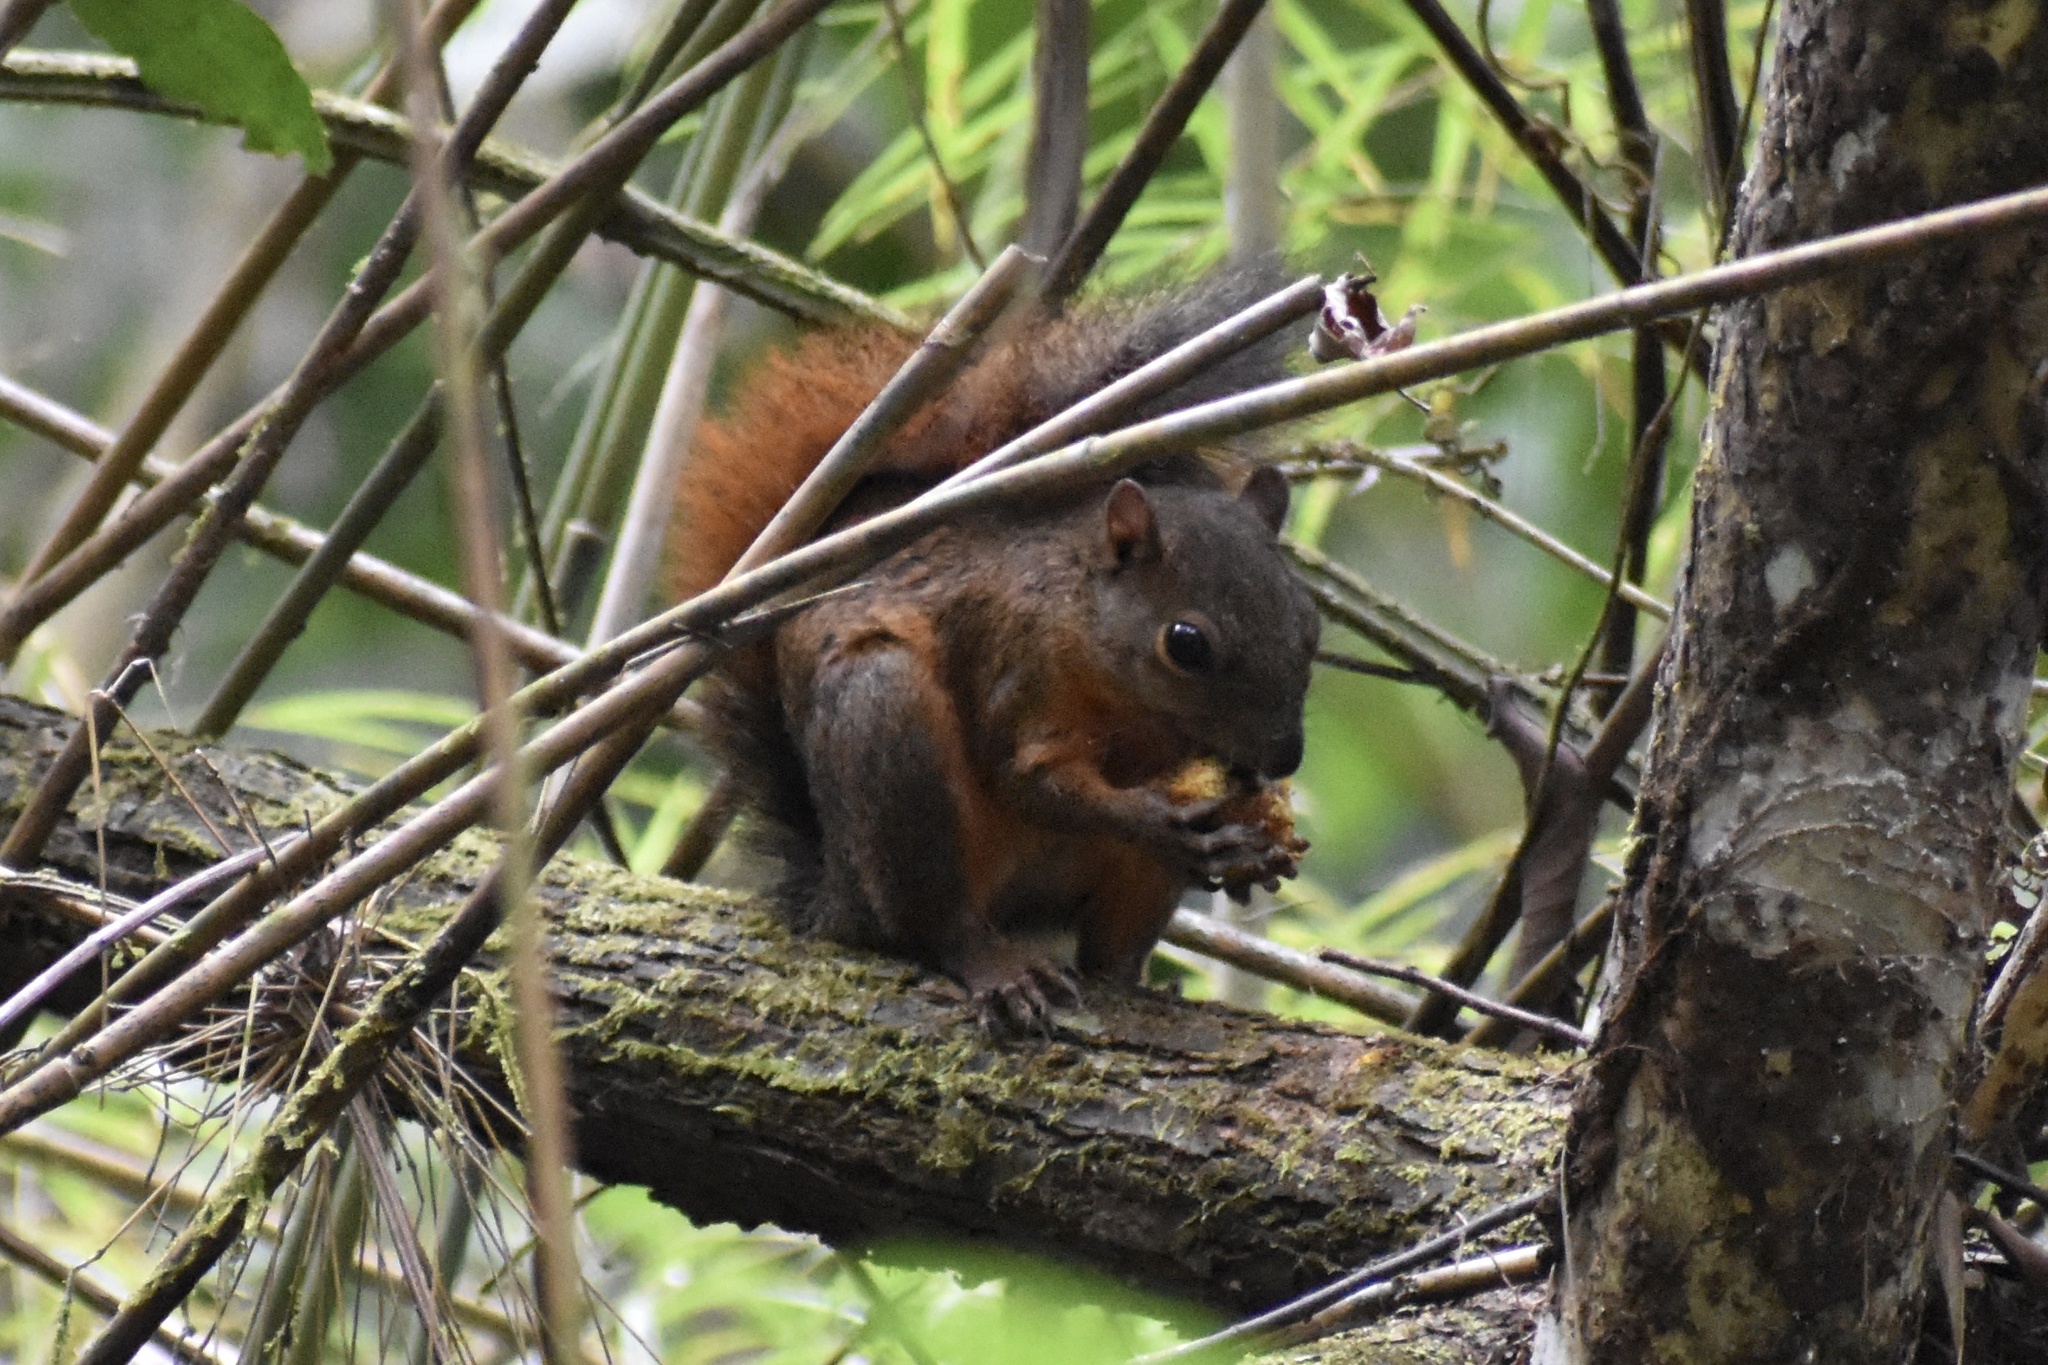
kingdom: Animalia
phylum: Chordata
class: Mammalia
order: Rodentia
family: Sciuridae
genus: Sciurus
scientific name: Sciurus granatensis
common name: Red-tailed squirrel
